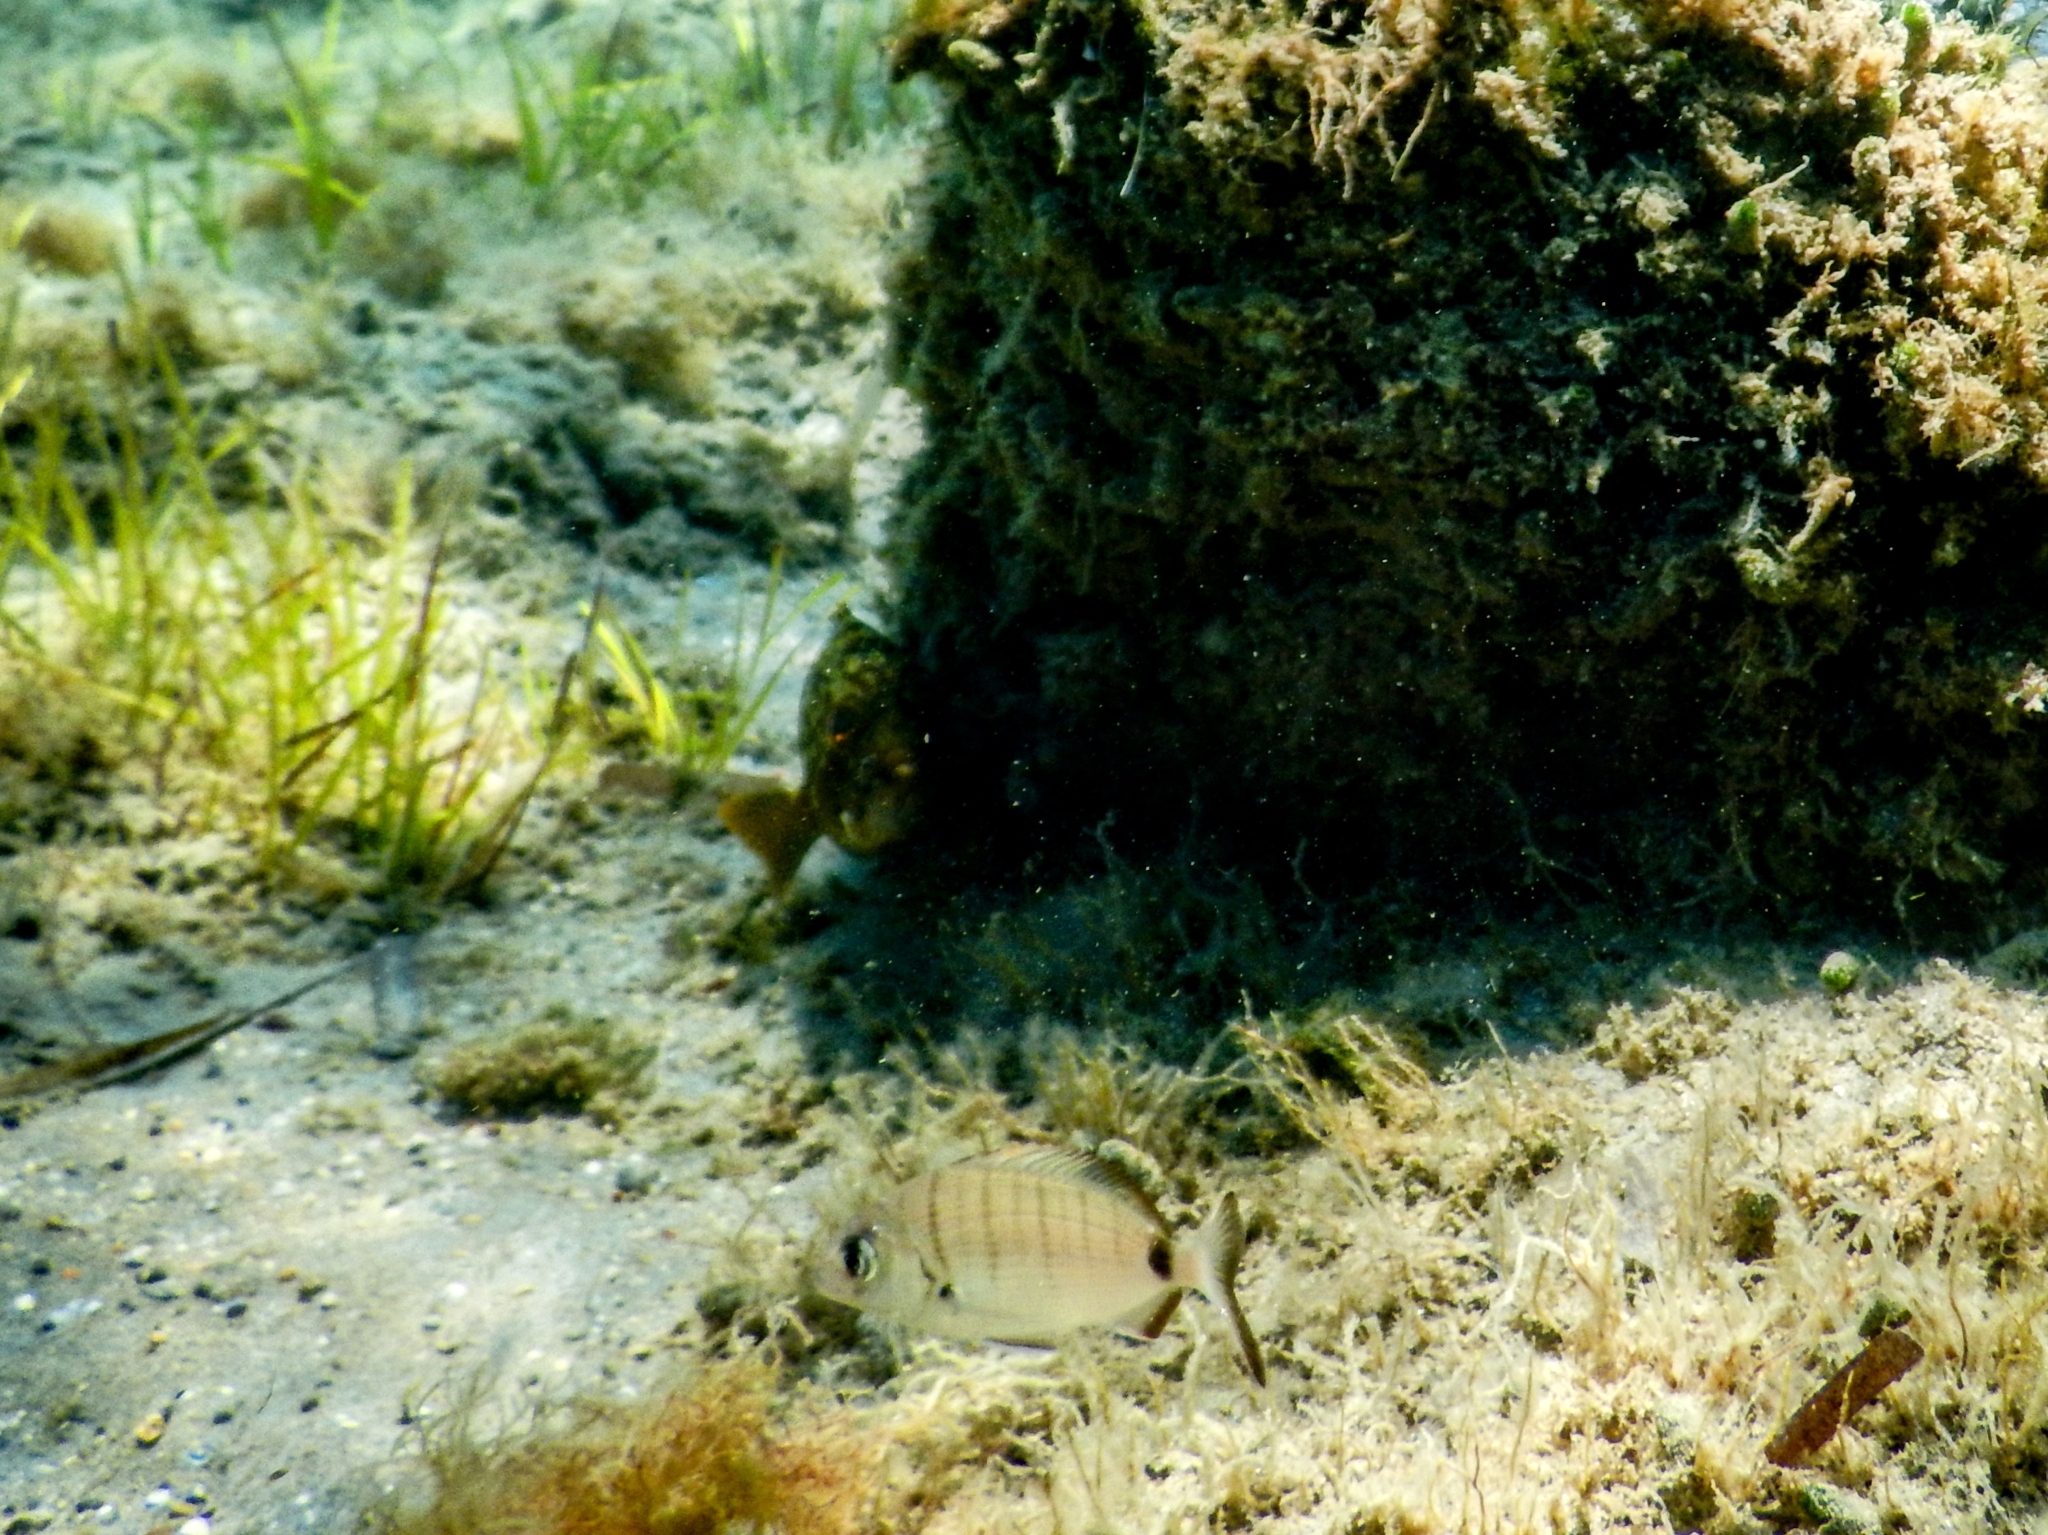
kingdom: Animalia
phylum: Chordata
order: Perciformes
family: Sparidae
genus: Diplodus
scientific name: Diplodus sargus
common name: White seabream
